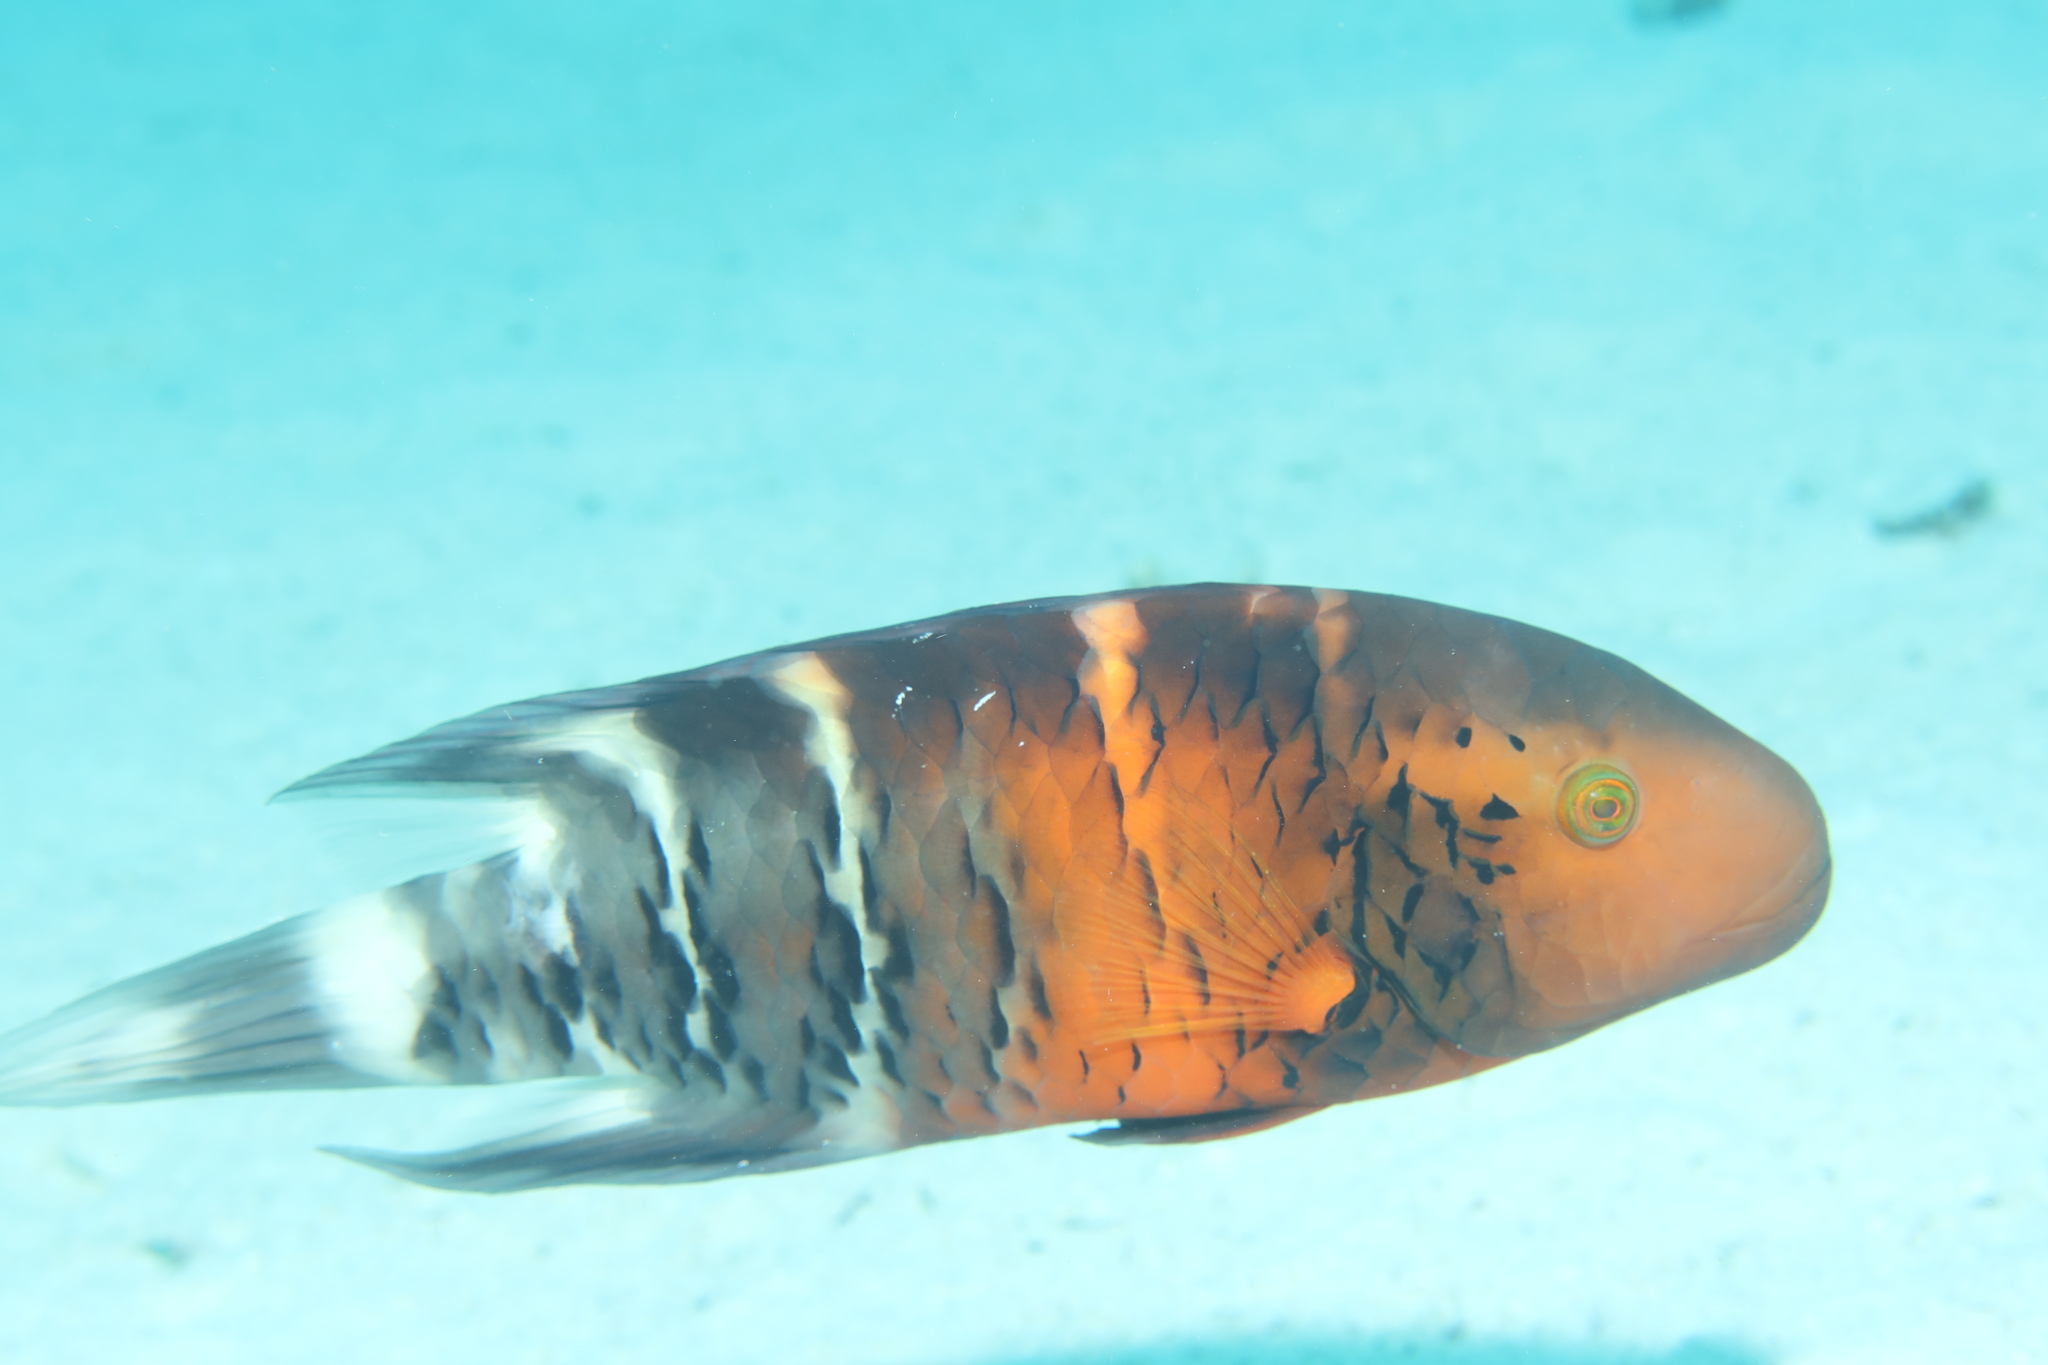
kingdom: Animalia
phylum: Chordata
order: Perciformes
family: Labridae
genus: Cheilinus
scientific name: Cheilinus fasciatus
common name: Red-breasted wrasse
